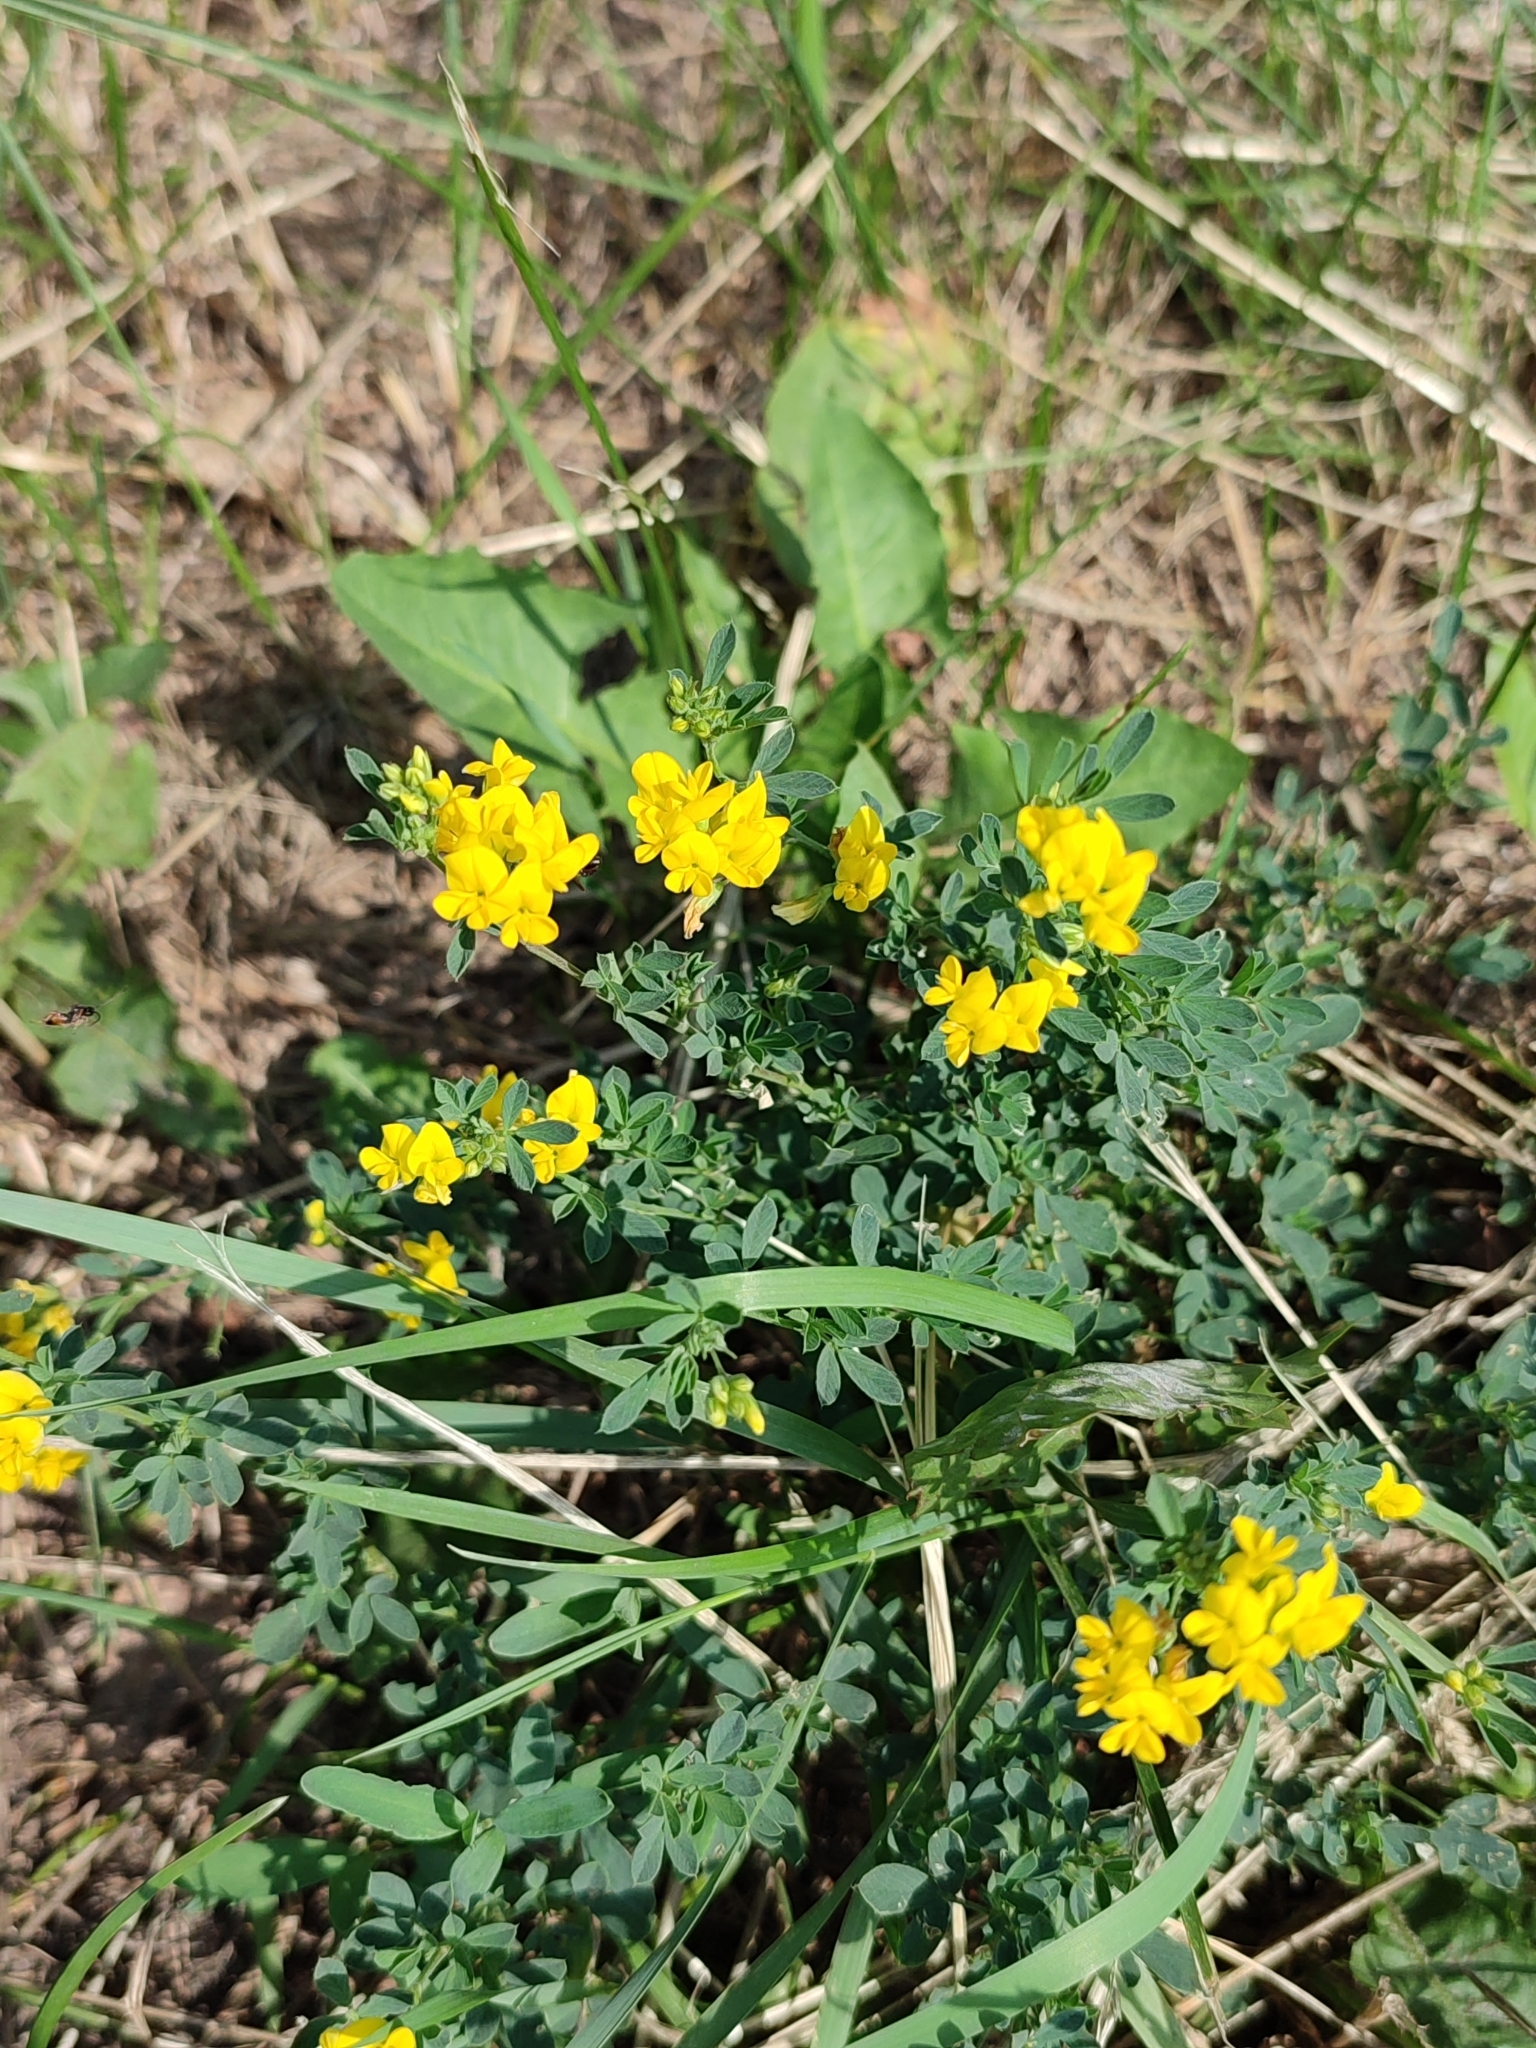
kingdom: Plantae
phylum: Tracheophyta
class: Magnoliopsida
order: Fabales
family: Fabaceae
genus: Medicago
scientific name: Medicago falcata
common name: Sickle medick
